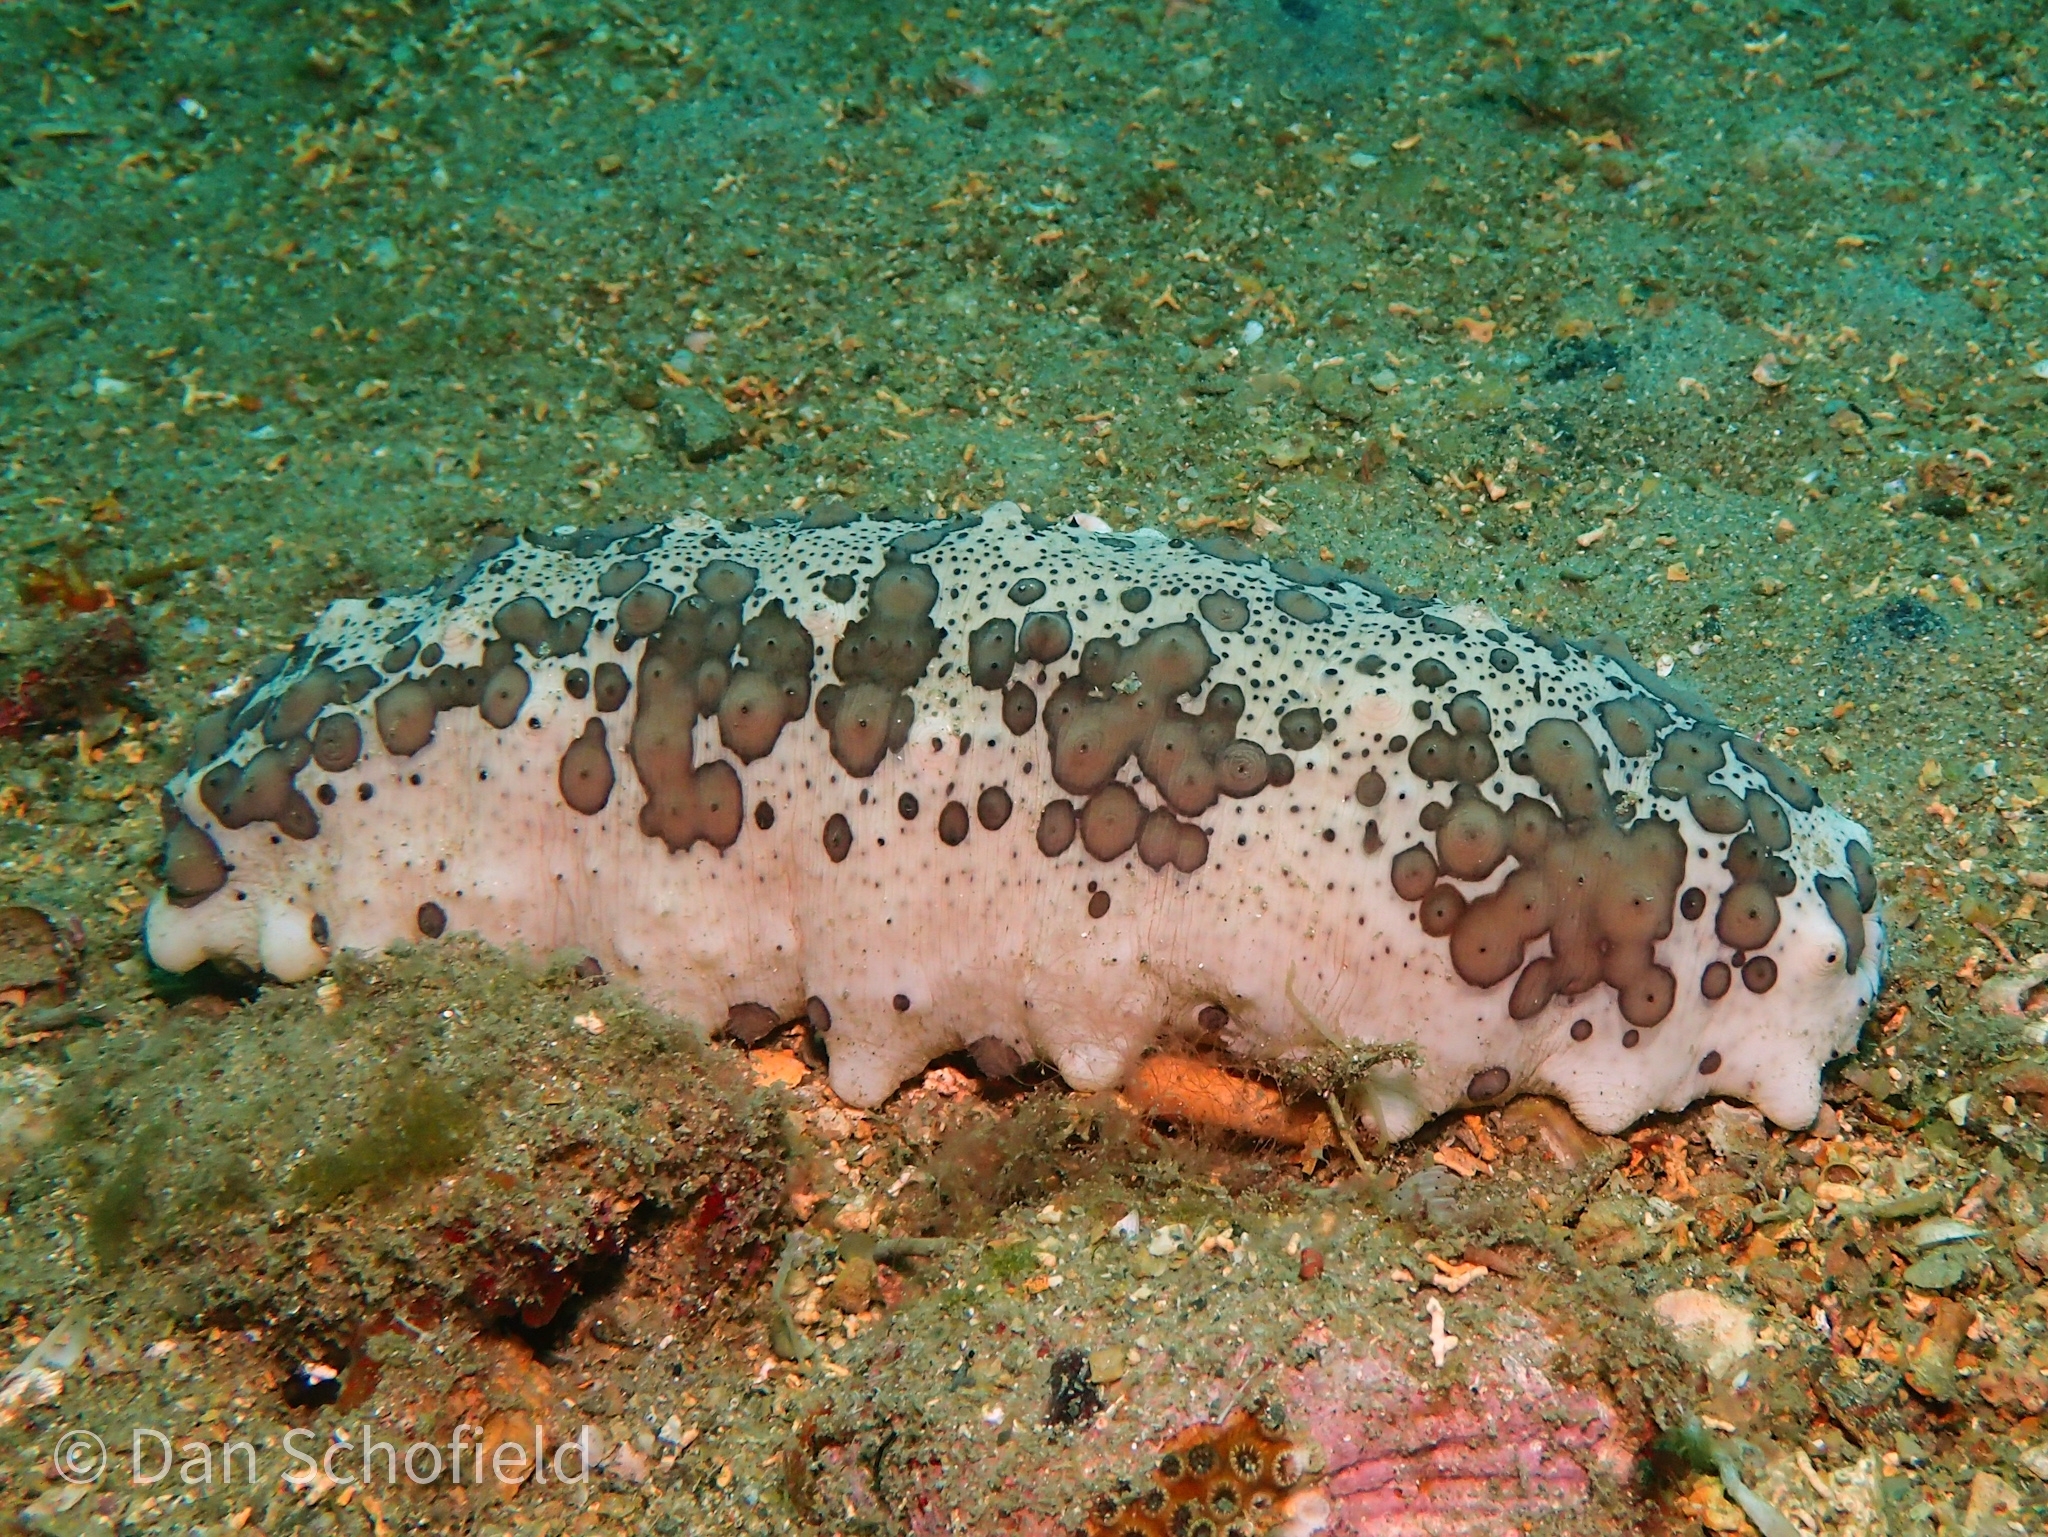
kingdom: Animalia
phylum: Echinodermata
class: Holothuroidea
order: Synallactida
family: Stichopodidae
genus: Isostichopus
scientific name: Isostichopus badionotus
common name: Chocolate chip cucumber
